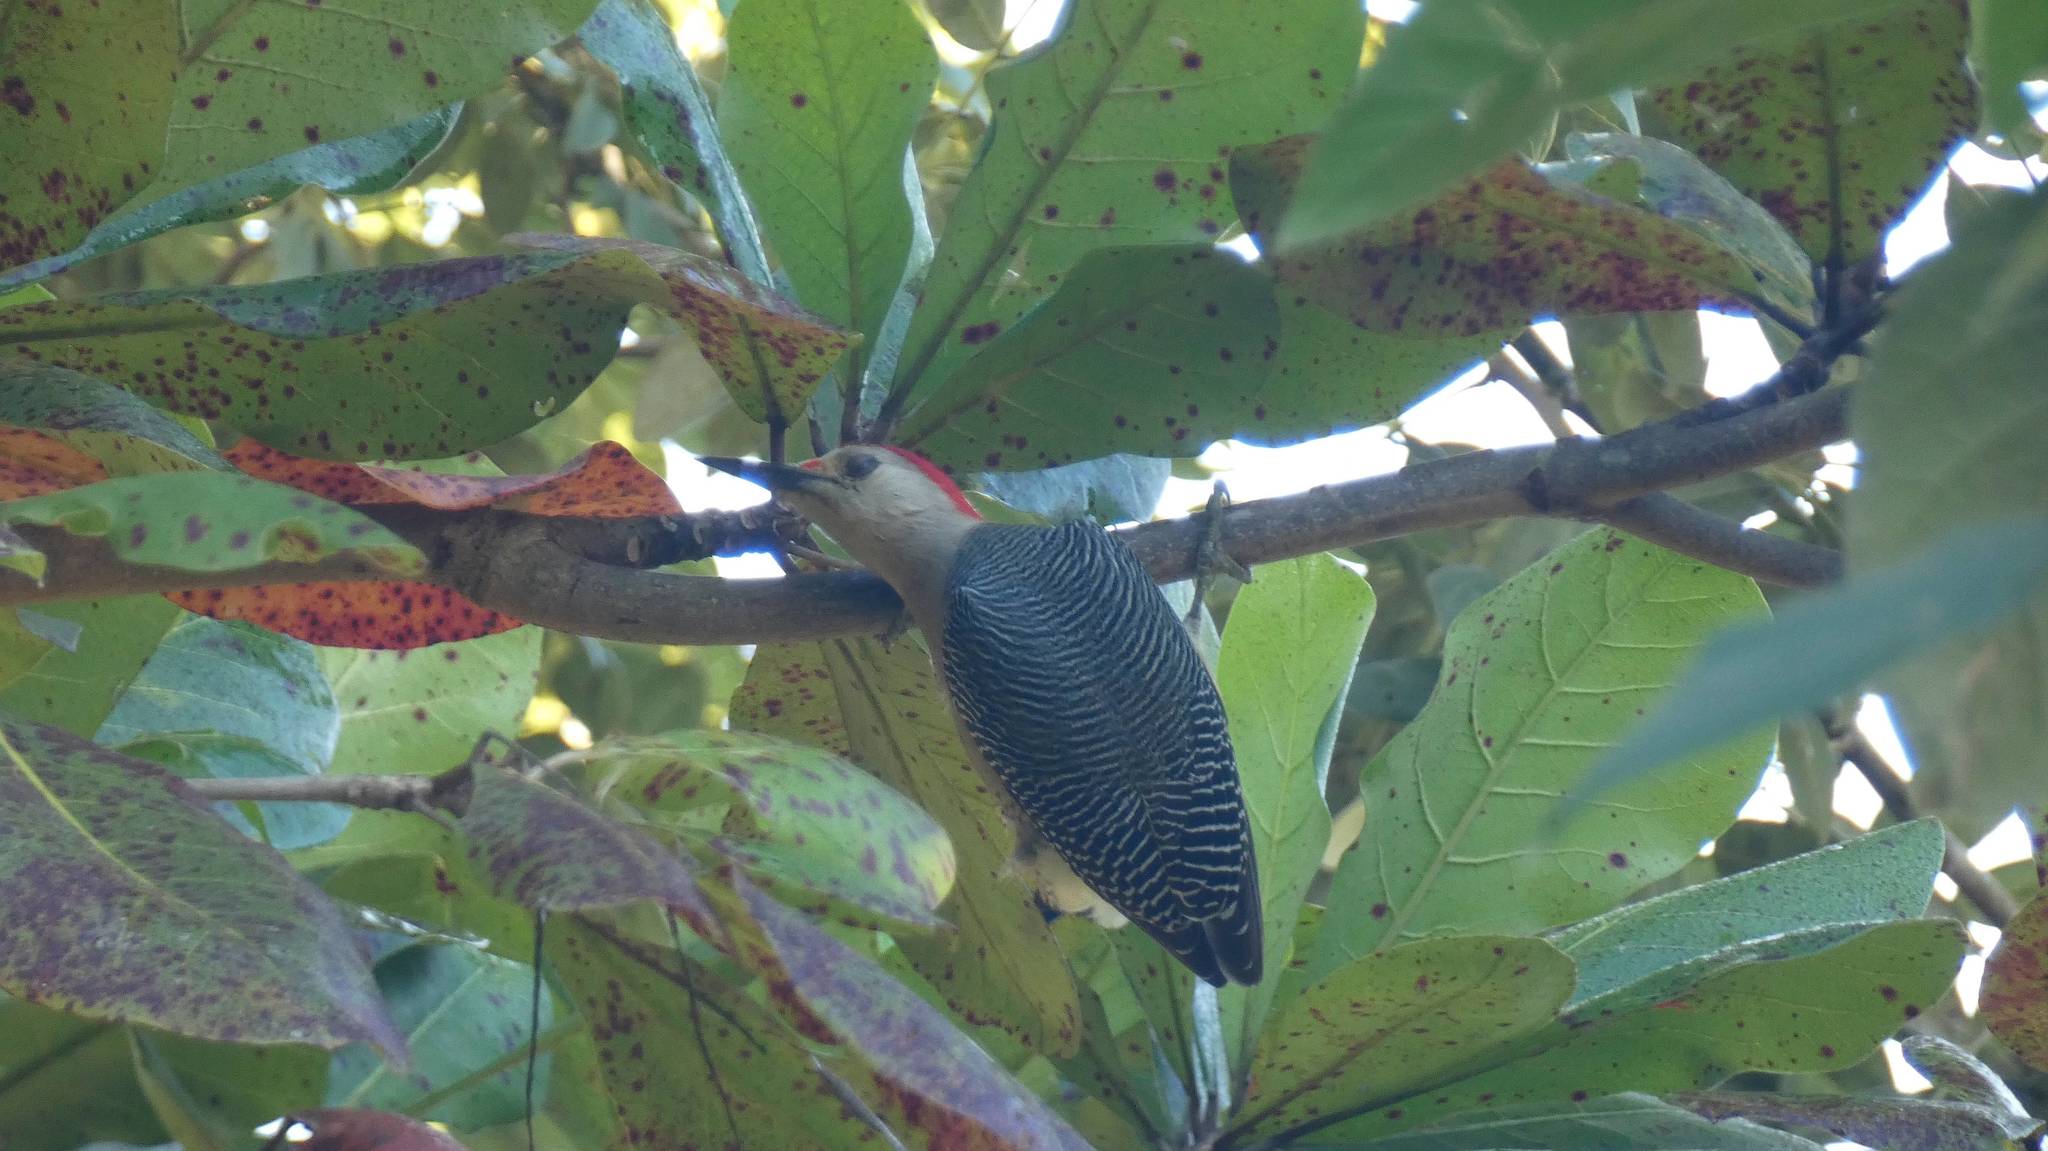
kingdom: Animalia
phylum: Chordata
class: Aves
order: Piciformes
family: Picidae
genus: Melanerpes
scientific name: Melanerpes aurifrons
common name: Golden-fronted woodpecker
